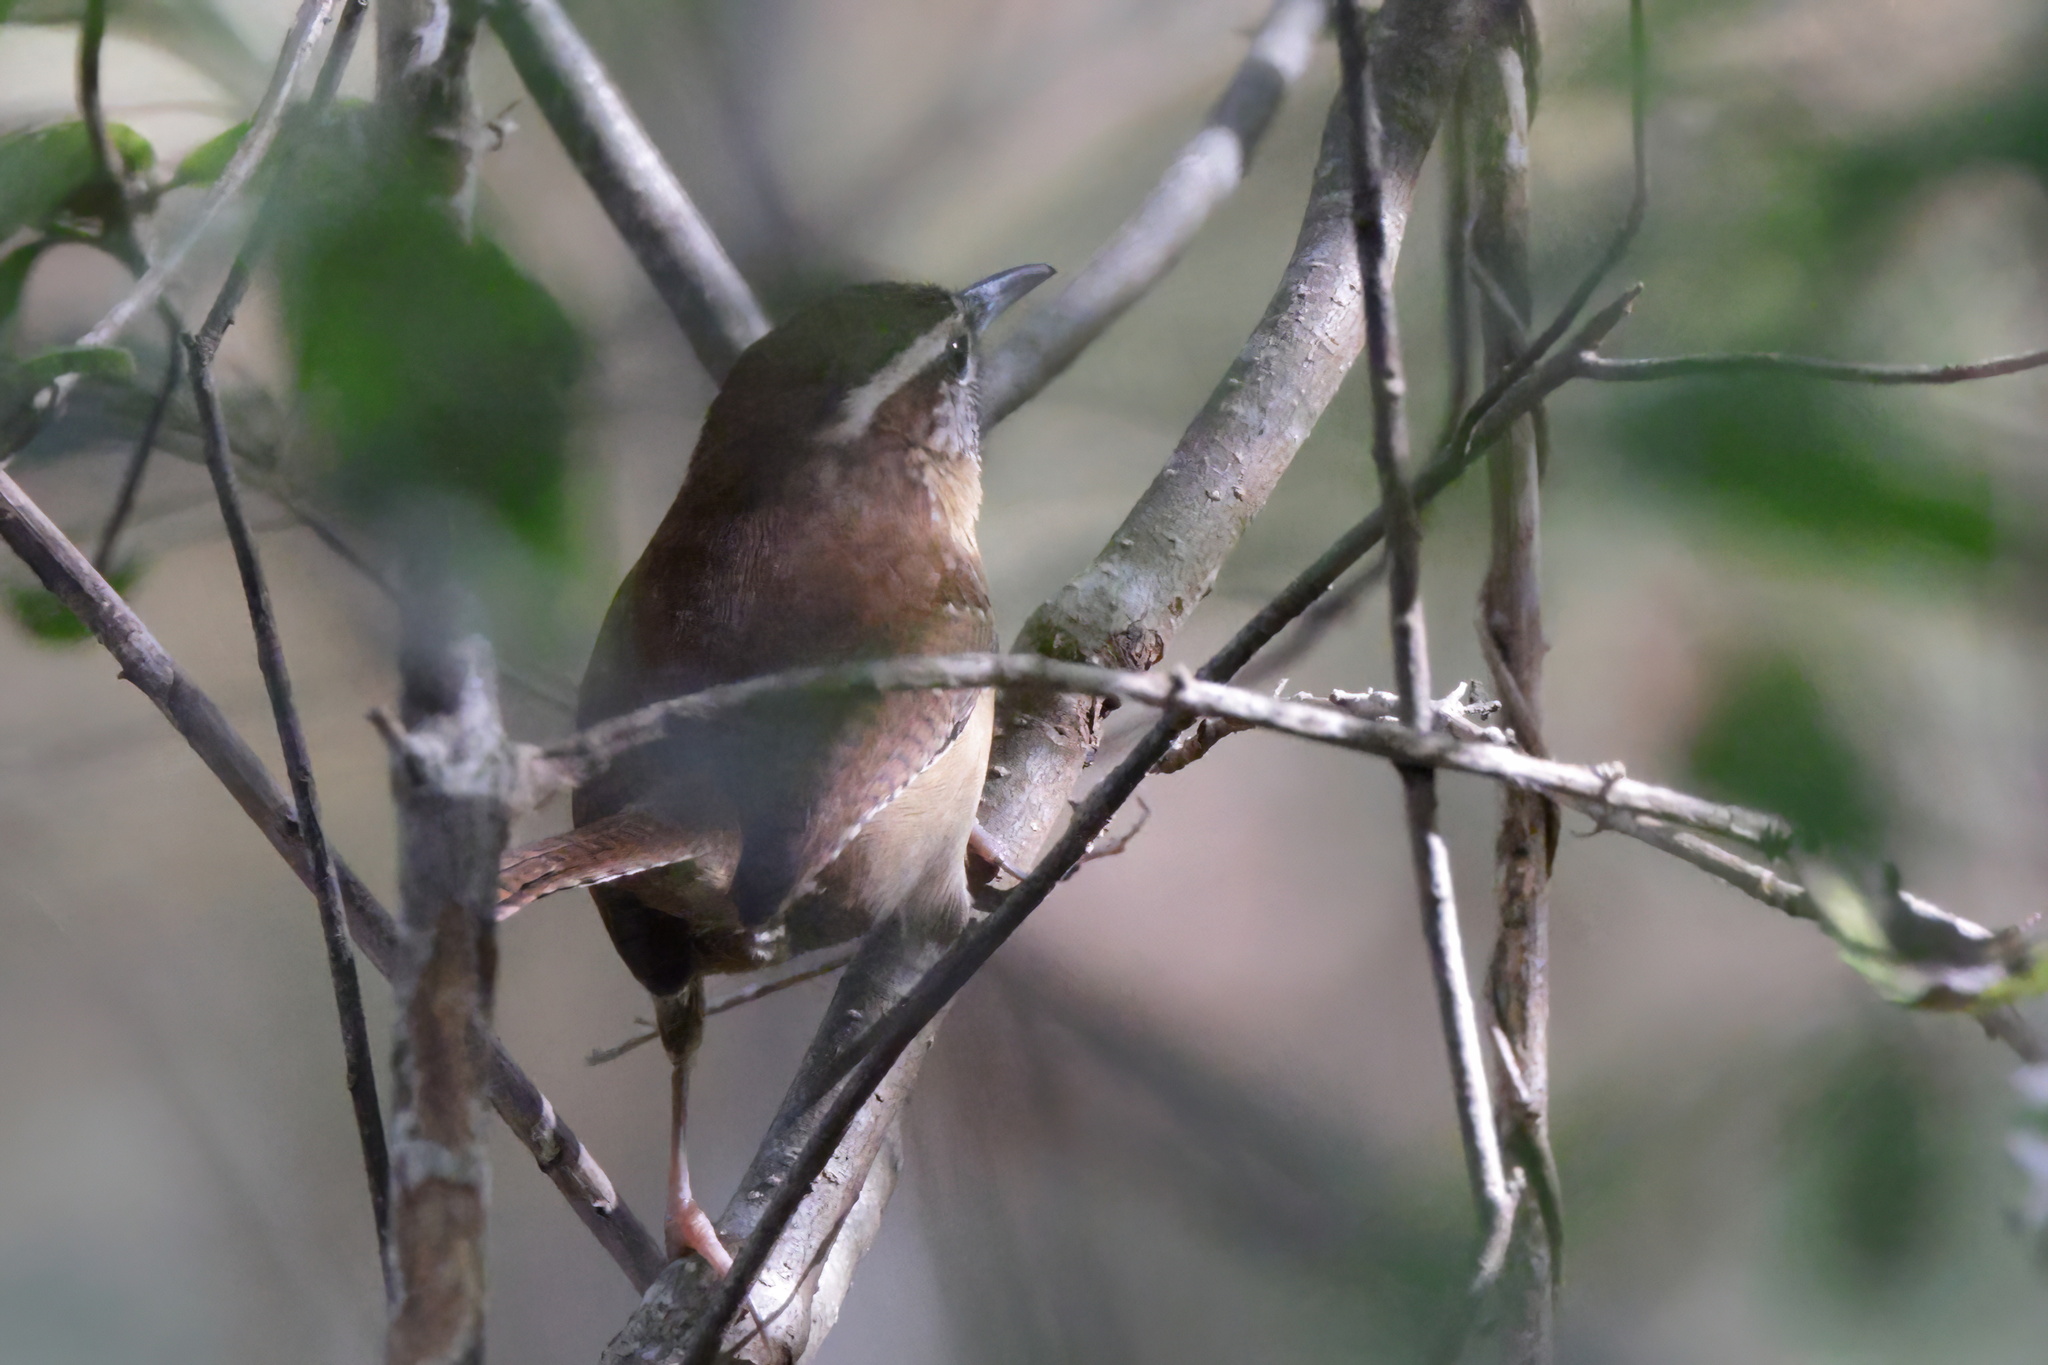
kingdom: Animalia
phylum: Chordata
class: Aves
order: Passeriformes
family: Troglodytidae
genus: Thryothorus
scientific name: Thryothorus ludovicianus
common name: Carolina wren
